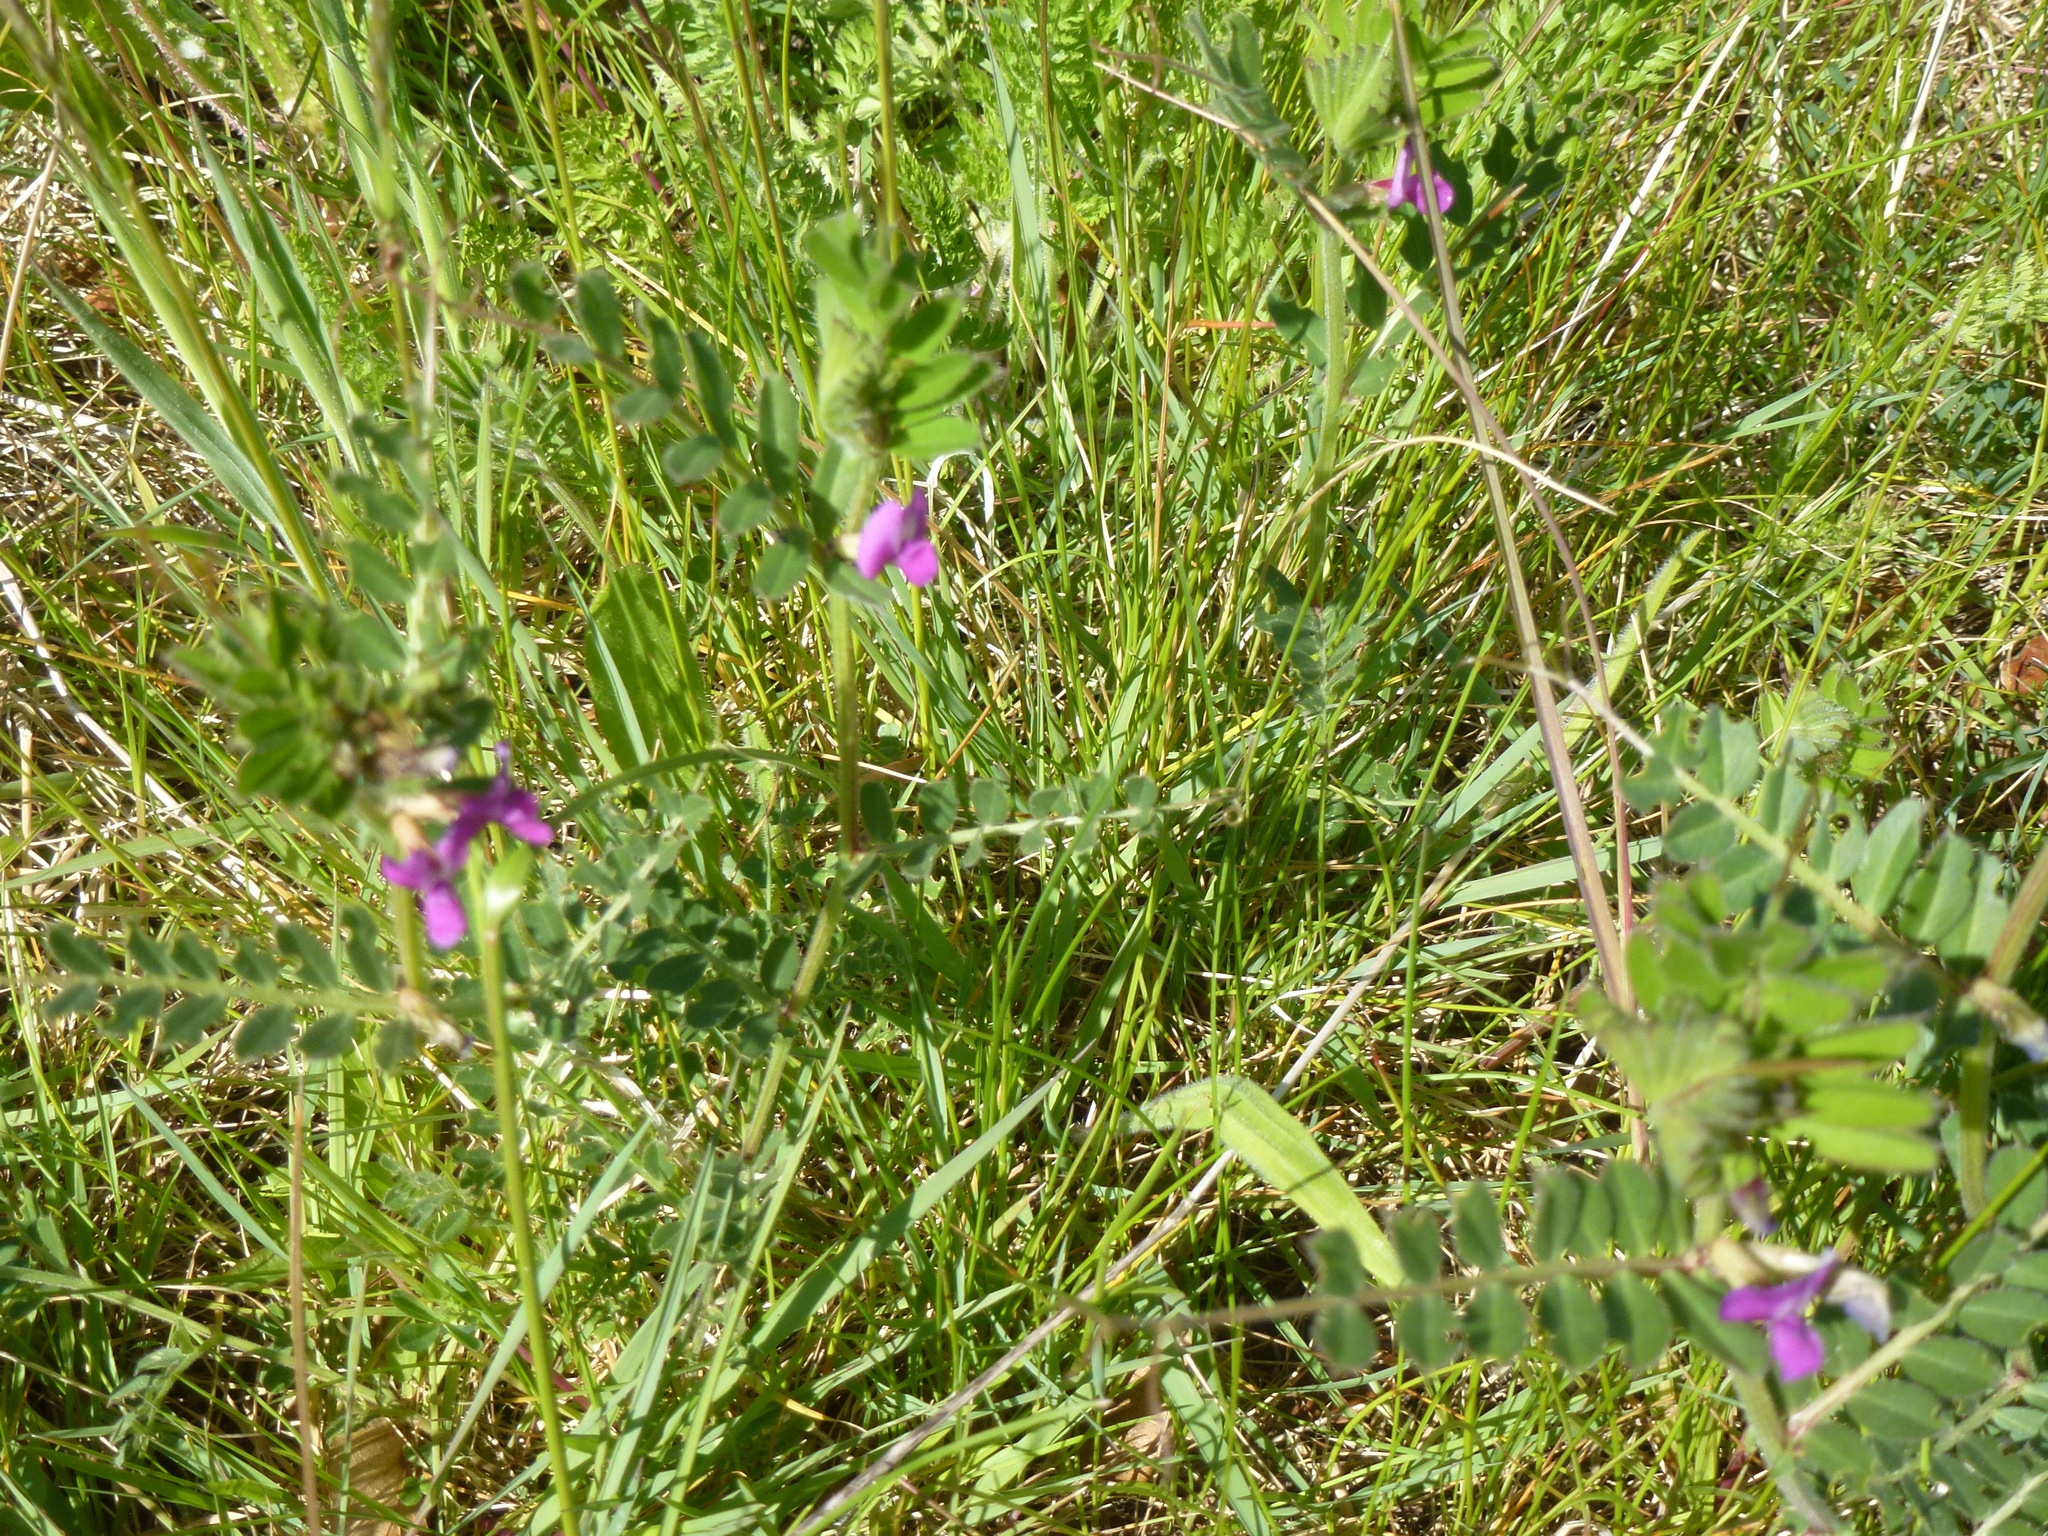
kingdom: Plantae
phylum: Tracheophyta
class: Magnoliopsida
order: Fabales
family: Fabaceae
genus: Vicia
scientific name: Vicia sativa
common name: Garden vetch
